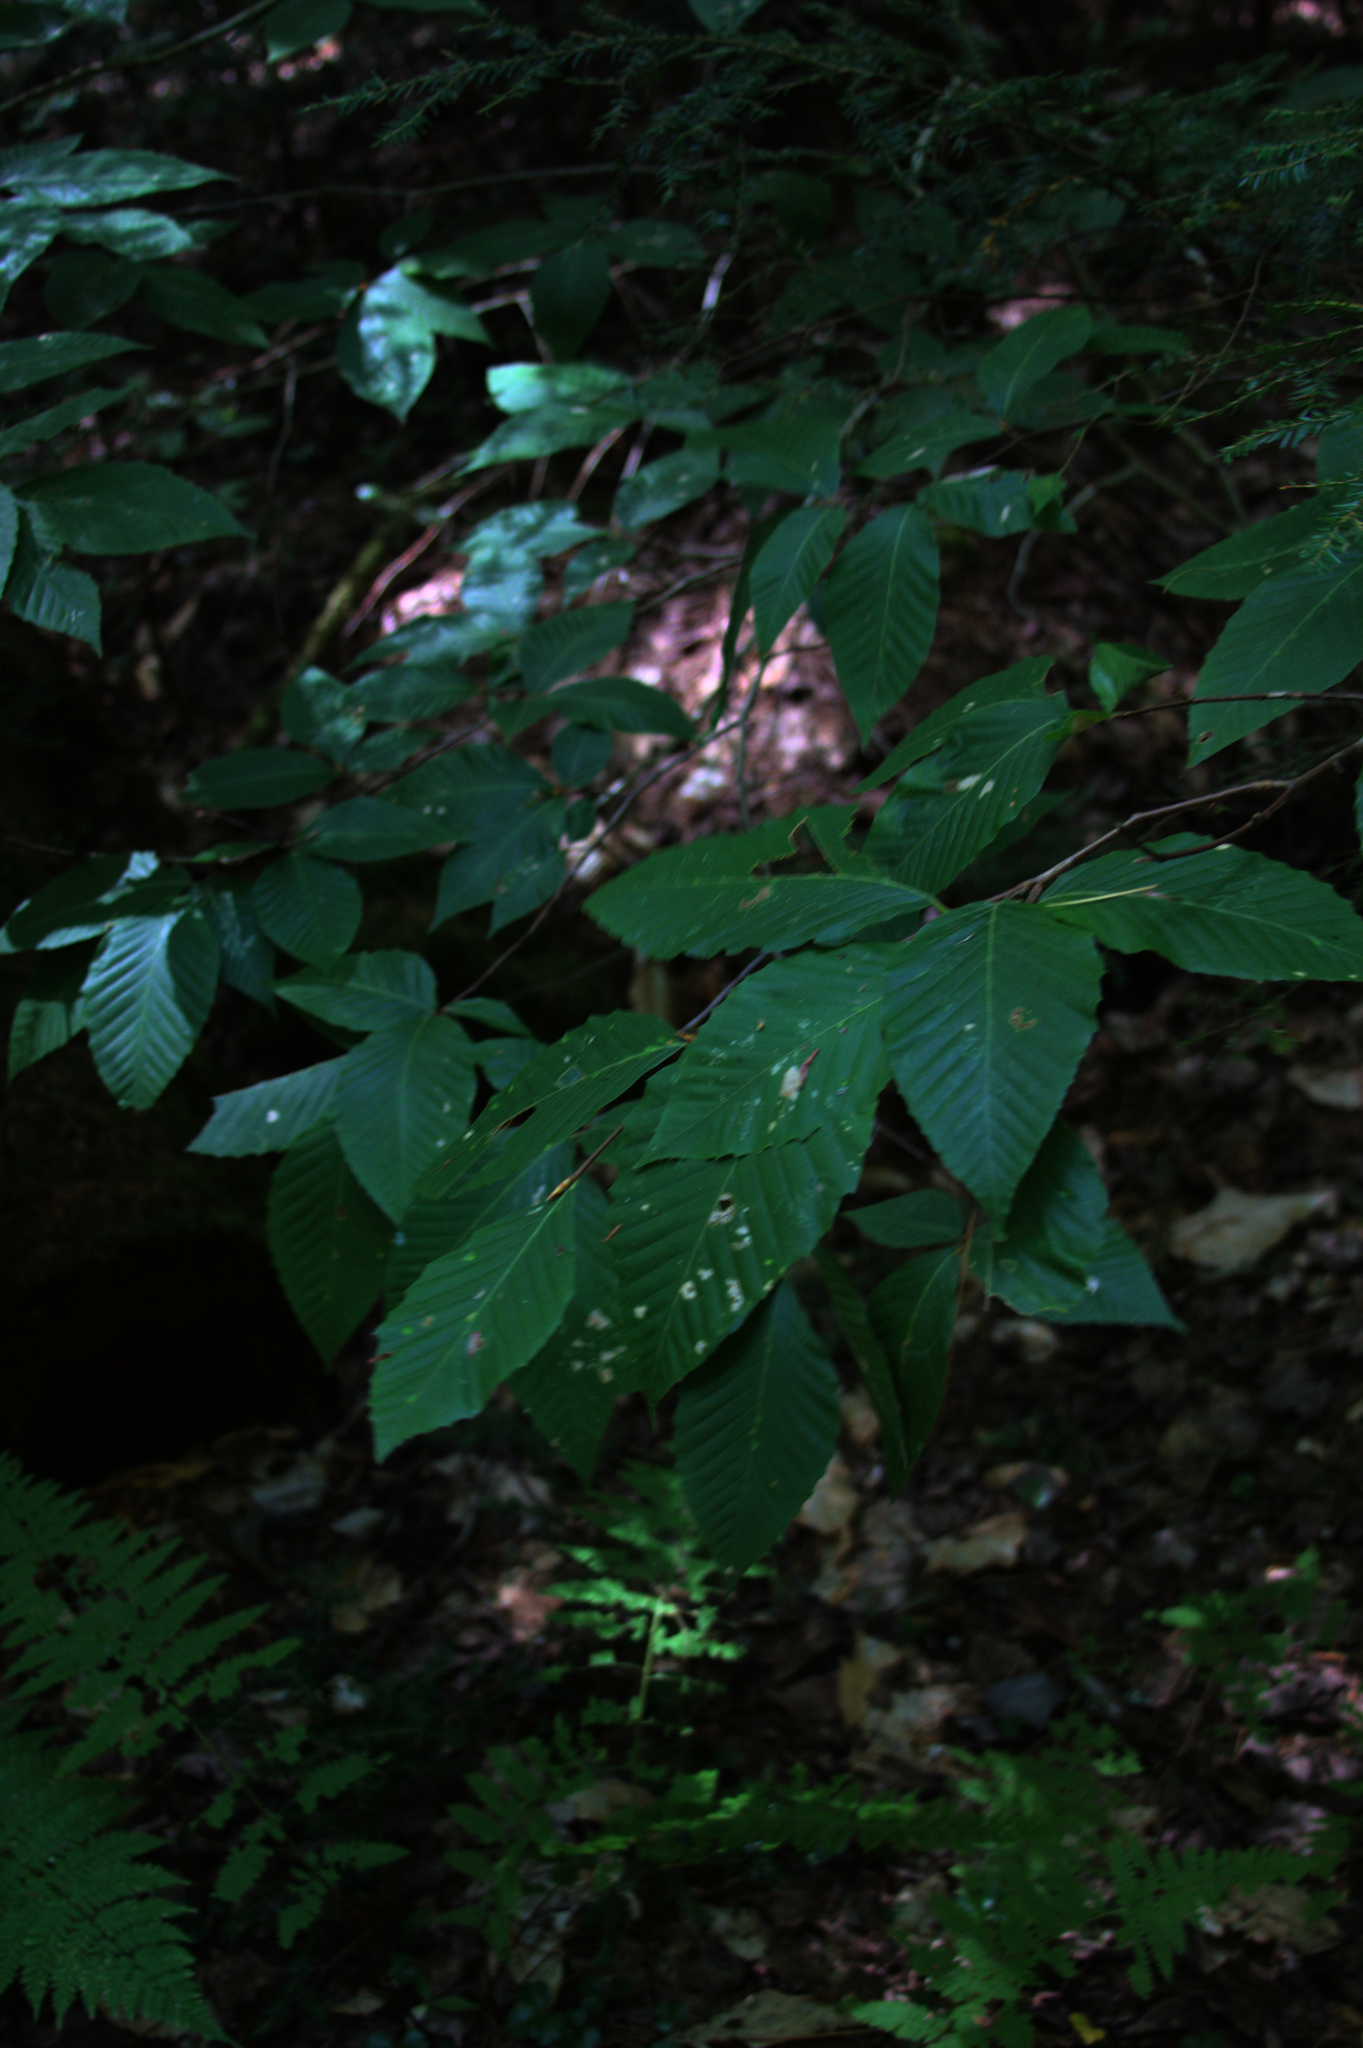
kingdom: Plantae
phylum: Tracheophyta
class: Magnoliopsida
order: Fagales
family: Fagaceae
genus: Fagus
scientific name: Fagus grandifolia
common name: American beech
